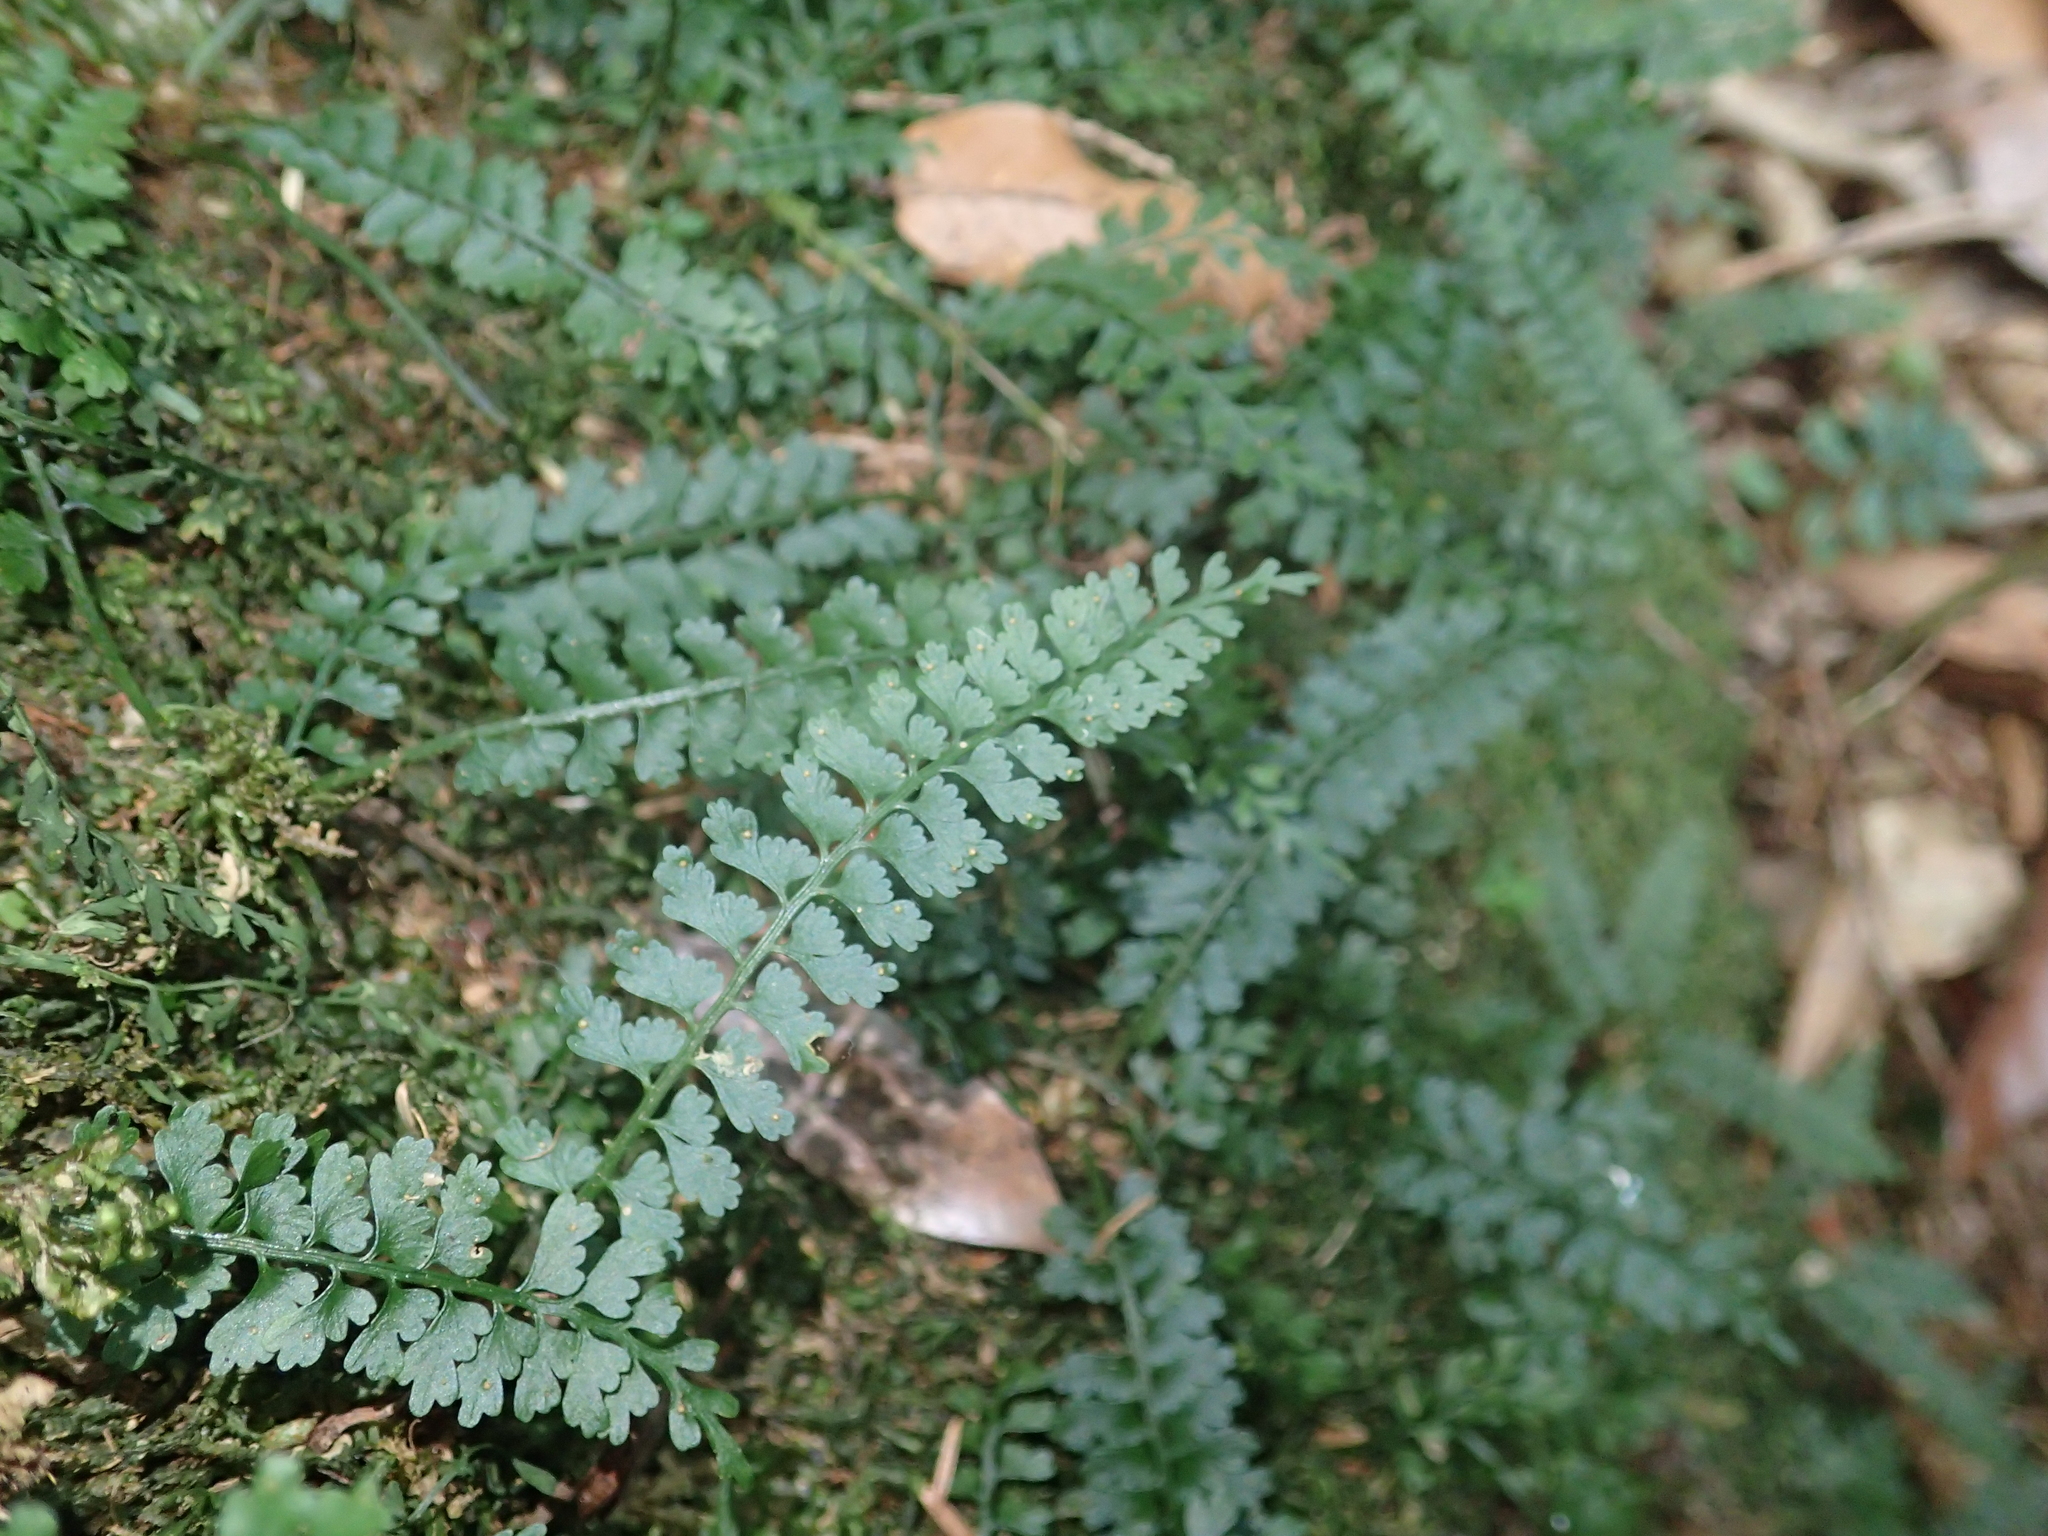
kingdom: Plantae
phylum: Tracheophyta
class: Polypodiopsida
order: Polypodiales
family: Aspleniaceae
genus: Asplenium
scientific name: Asplenium gueinzianum
